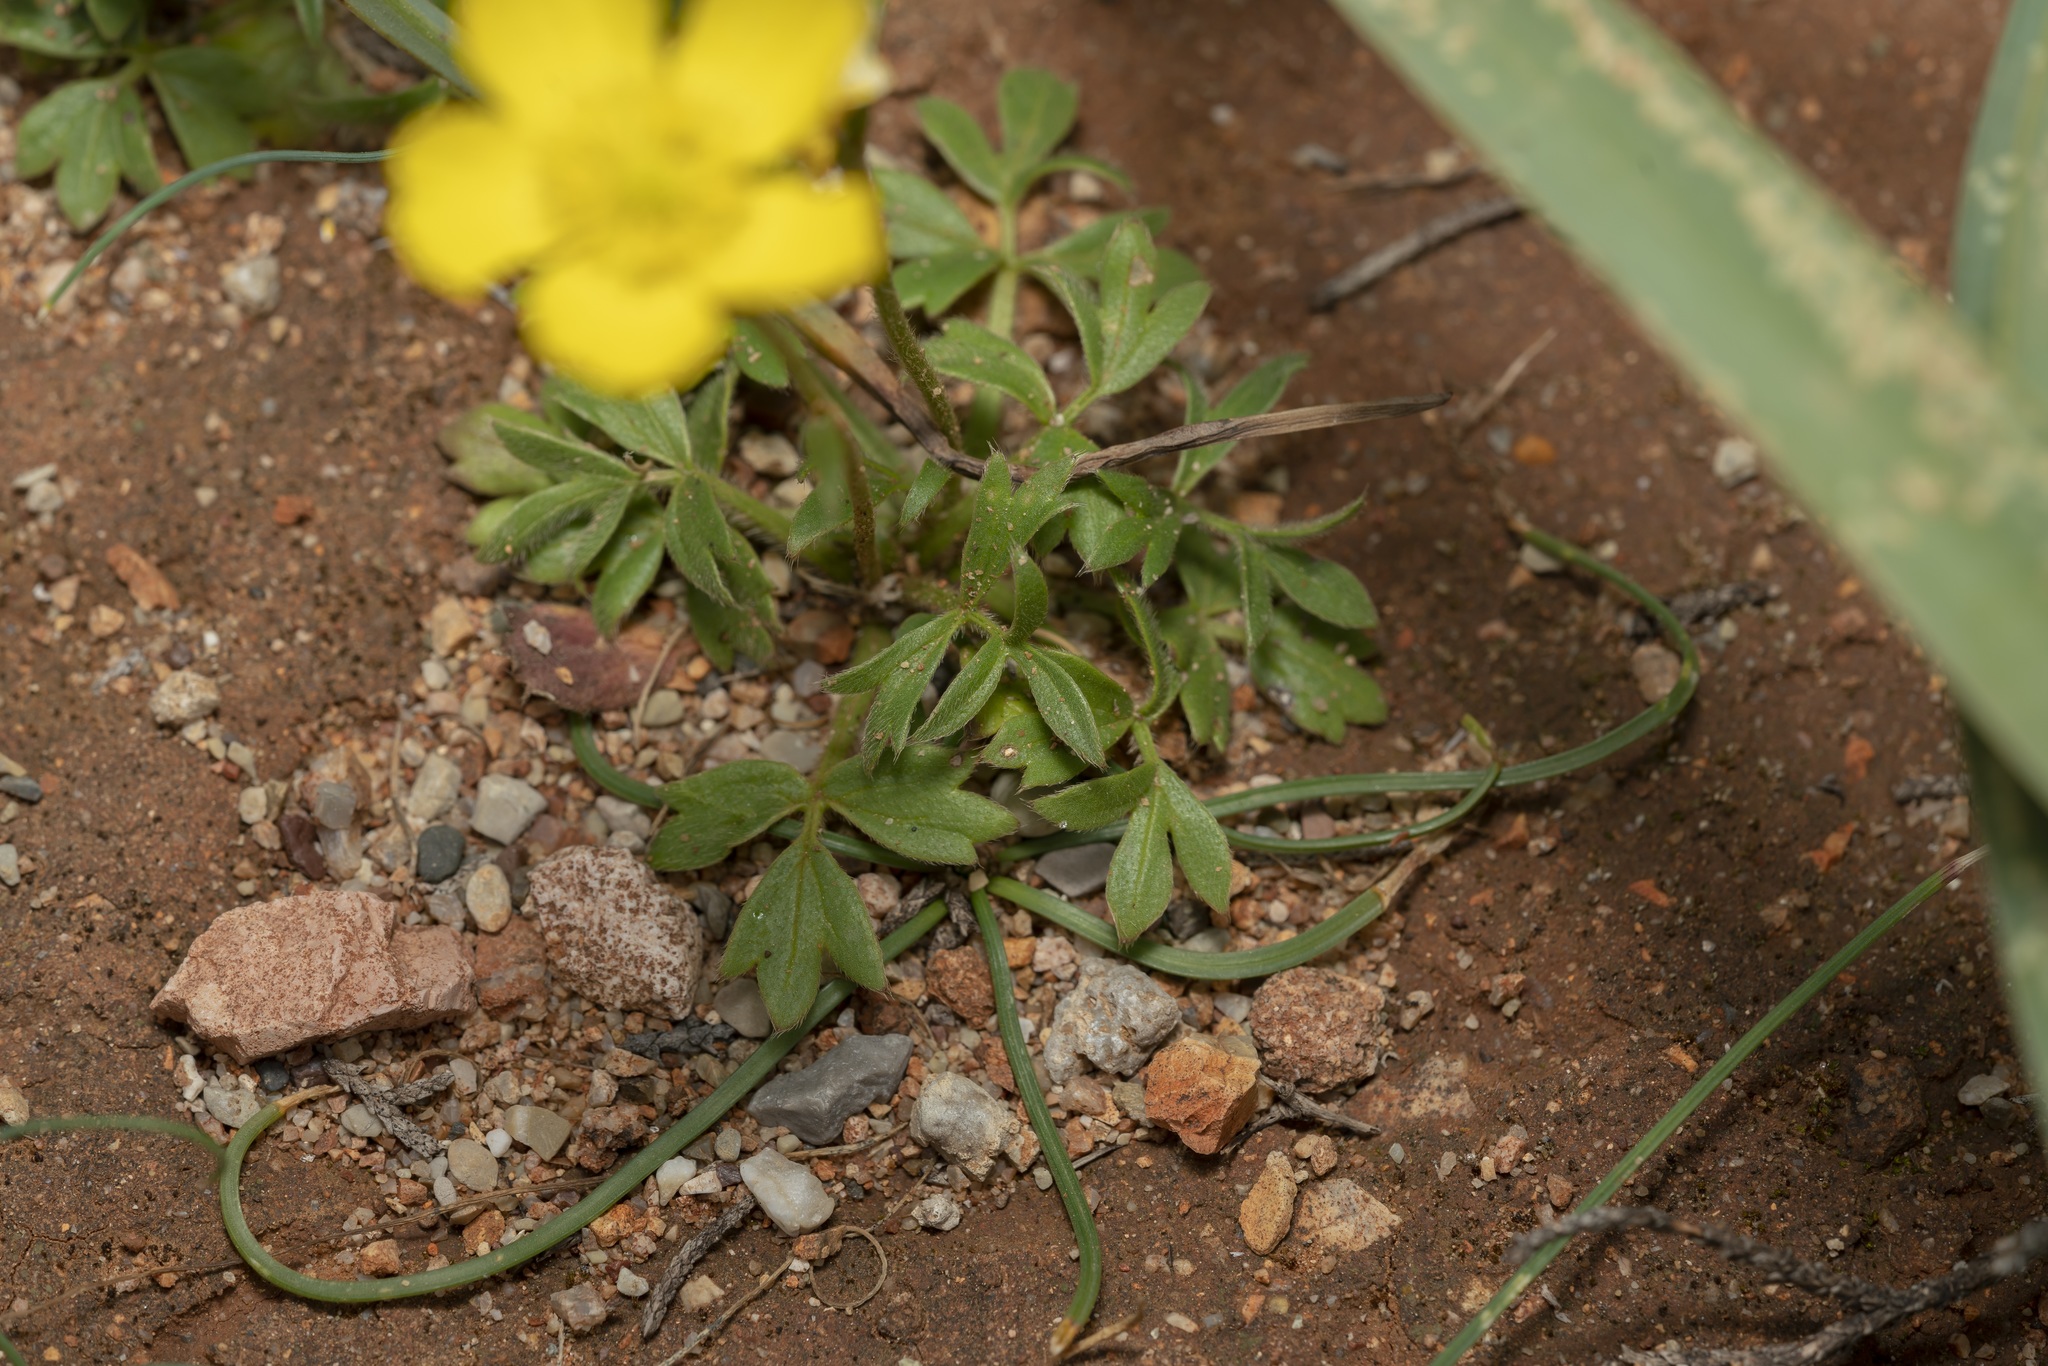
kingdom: Plantae
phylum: Tracheophyta
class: Magnoliopsida
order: Ranunculales
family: Ranunculaceae
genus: Ranunculus
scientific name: Ranunculus paludosus
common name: Jersey buttercup
